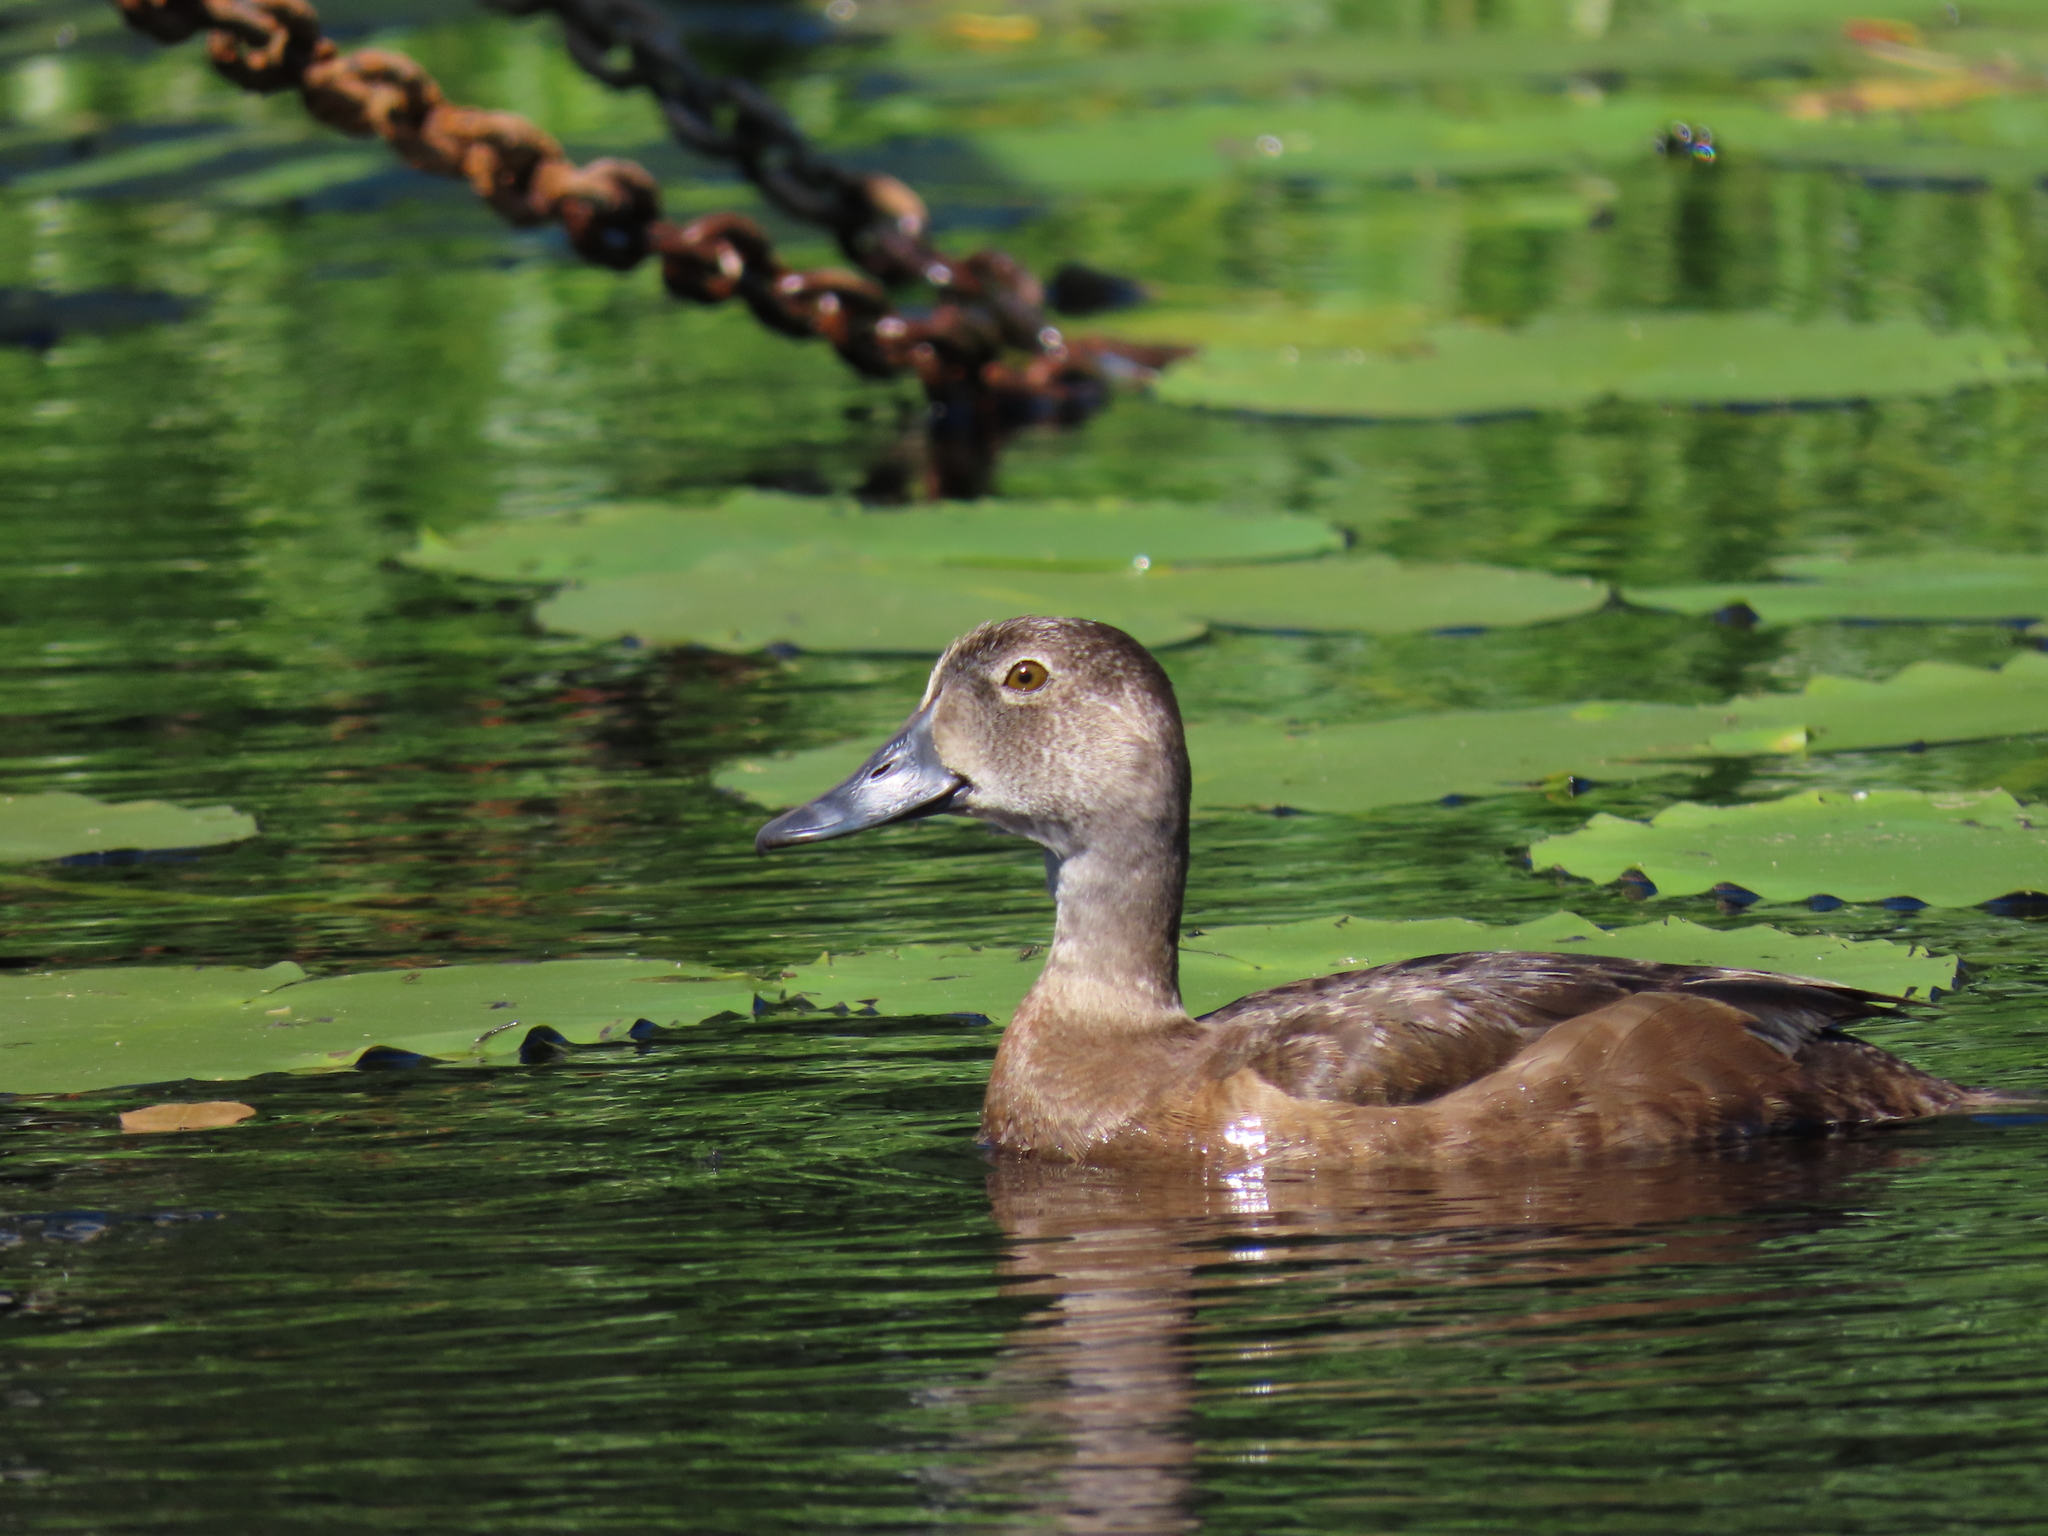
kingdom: Animalia
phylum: Chordata
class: Aves
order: Anseriformes
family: Anatidae
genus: Aythya
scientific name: Aythya collaris
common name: Ring-necked duck
